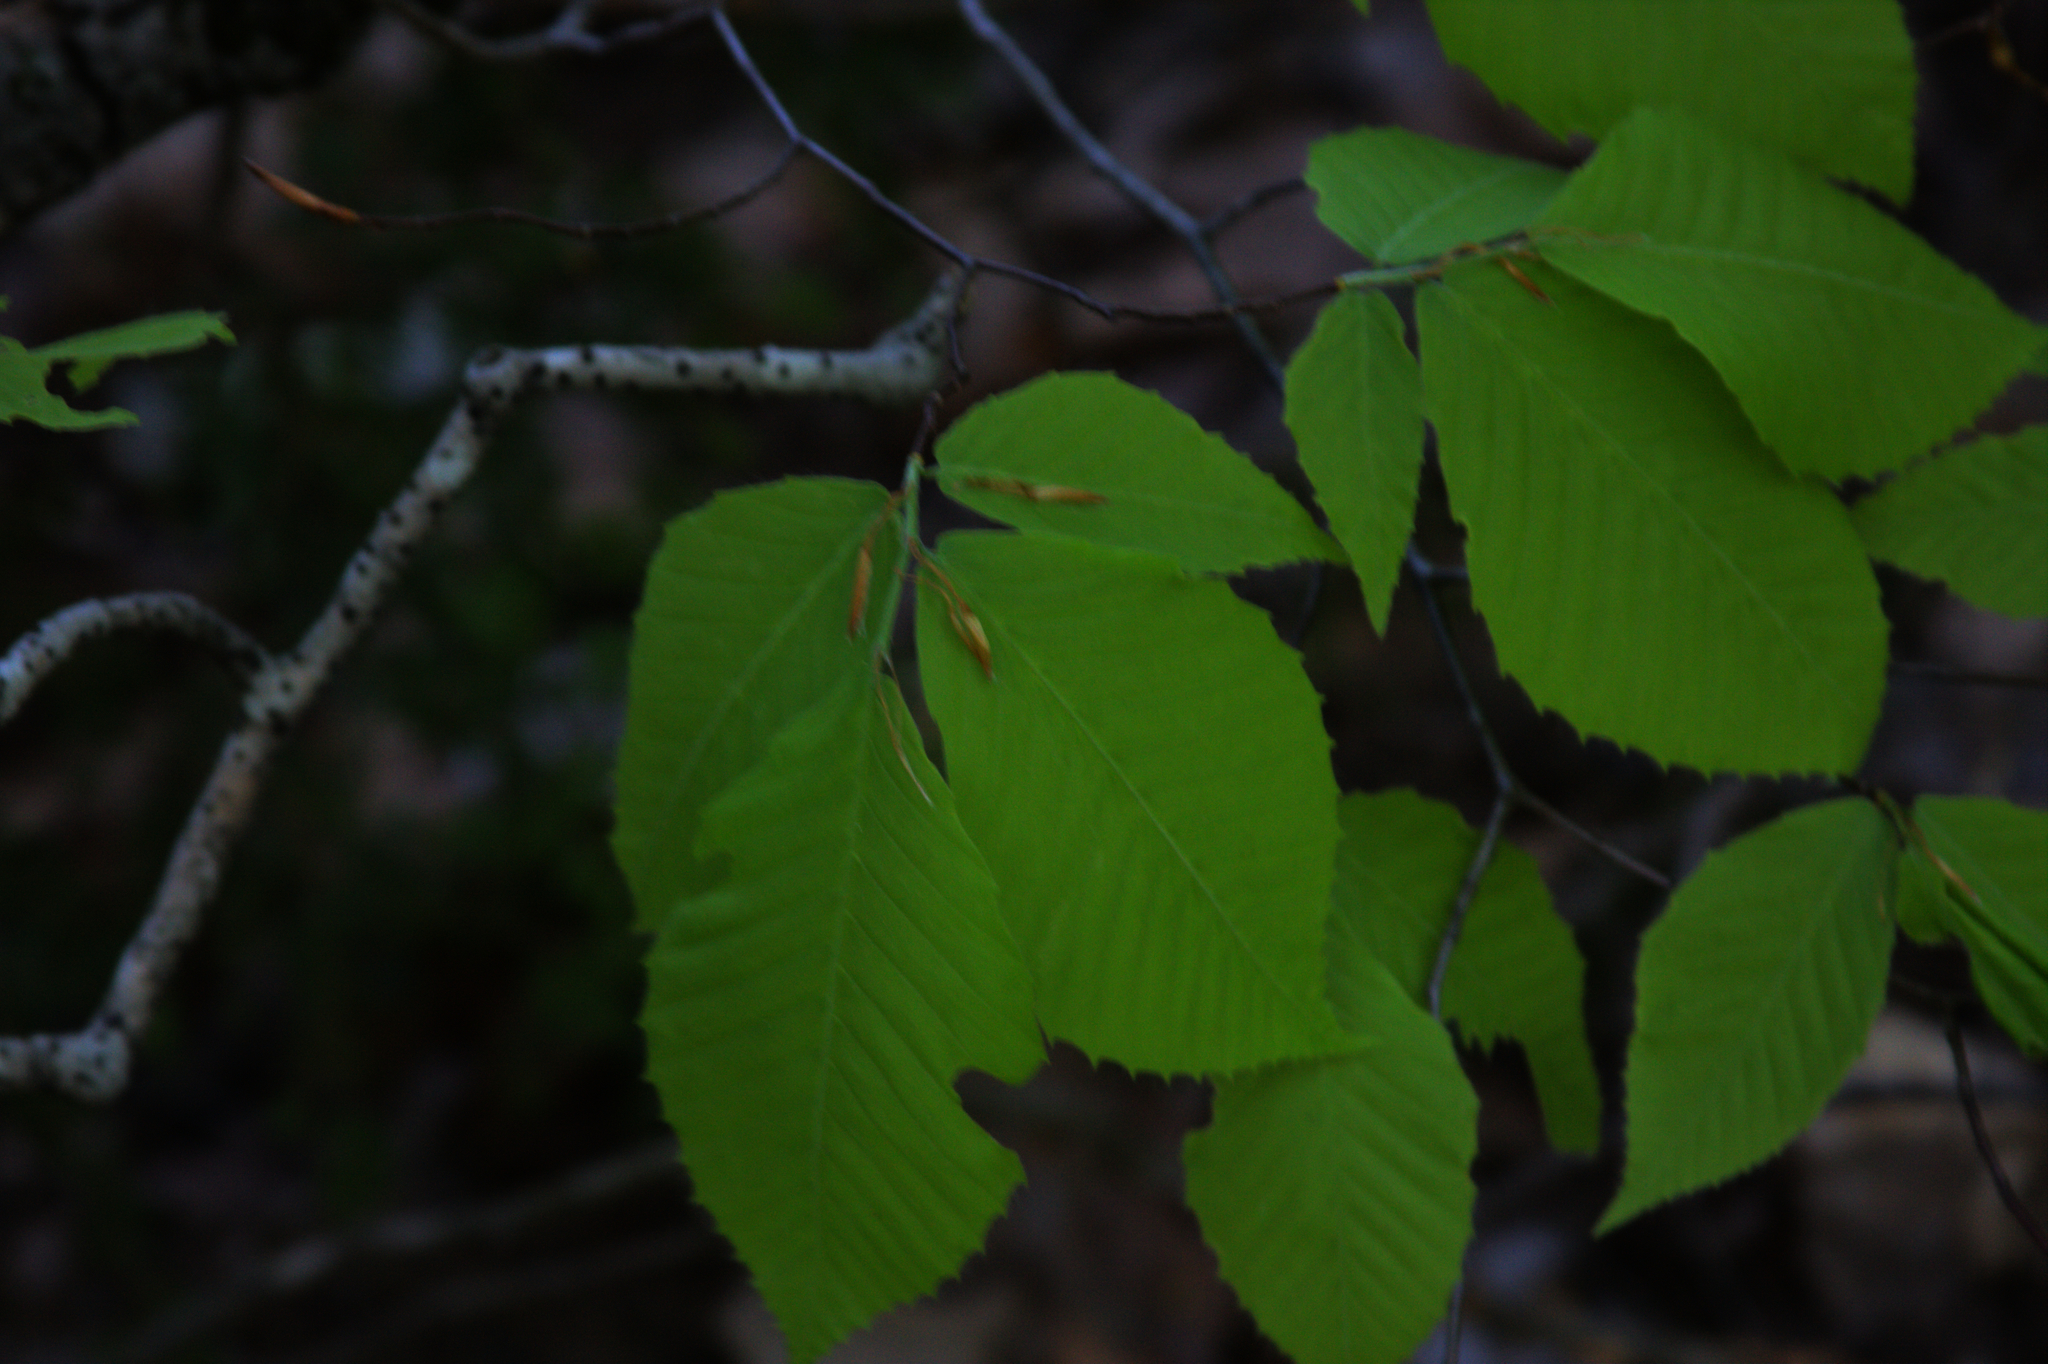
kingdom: Plantae
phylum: Tracheophyta
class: Magnoliopsida
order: Fagales
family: Fagaceae
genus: Fagus
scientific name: Fagus grandifolia
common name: American beech
